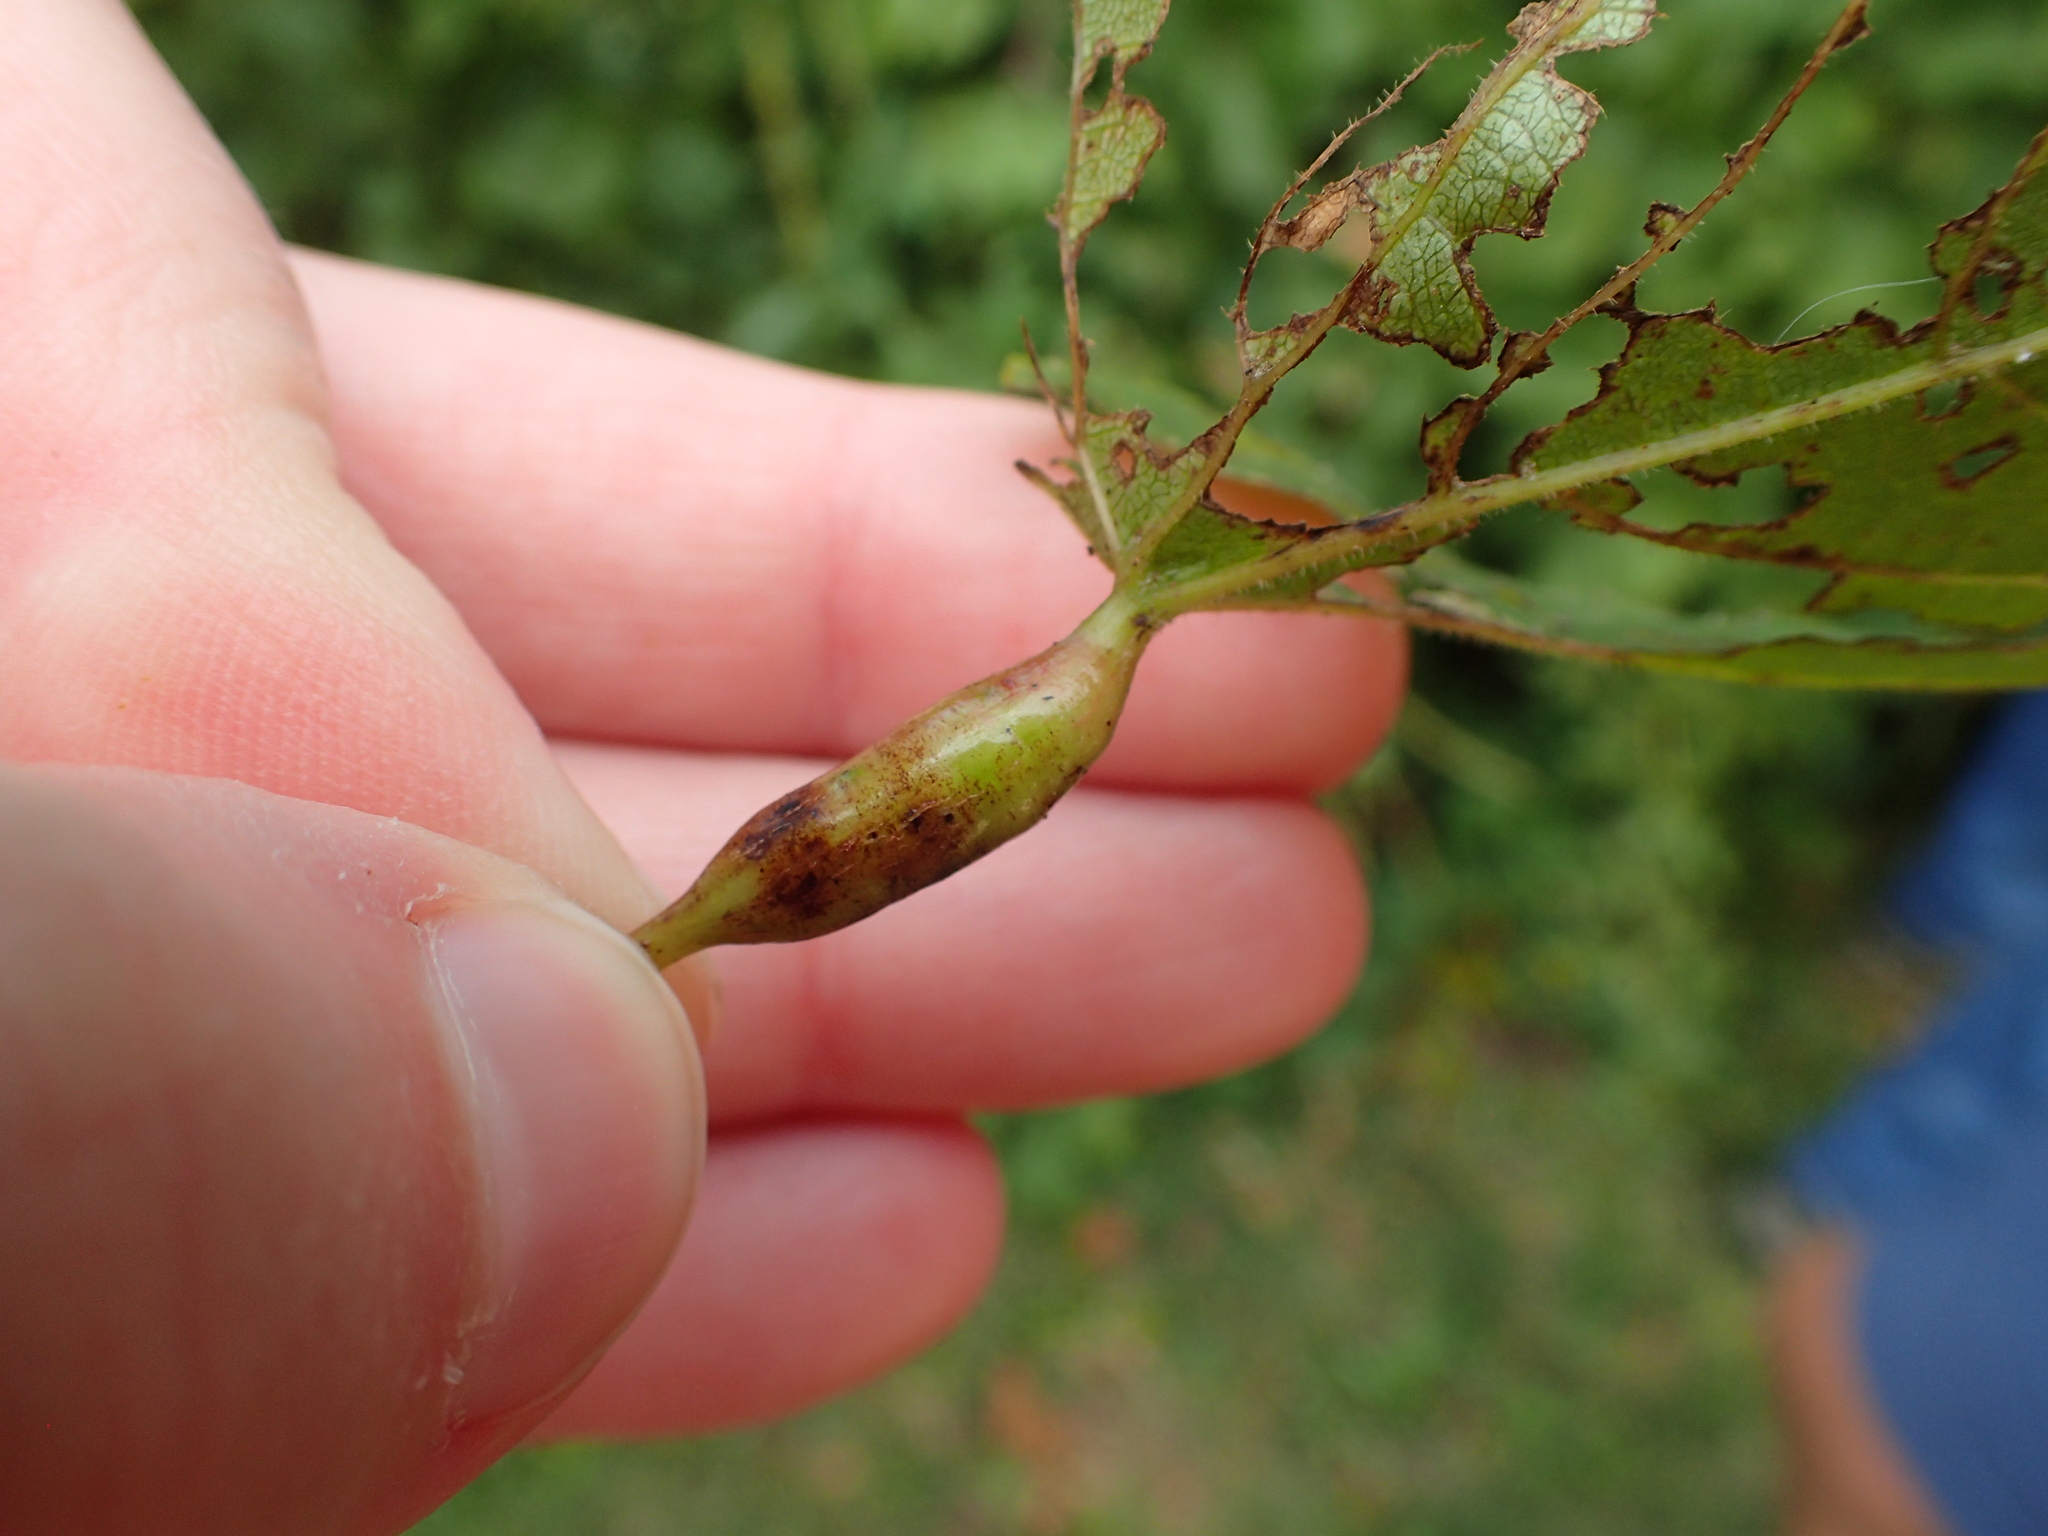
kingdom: Animalia
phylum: Arthropoda
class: Insecta
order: Diptera
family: Cecidomyiidae
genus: Neolasioptera
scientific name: Neolasioptera vitinea
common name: Grape leaf petiole gall
